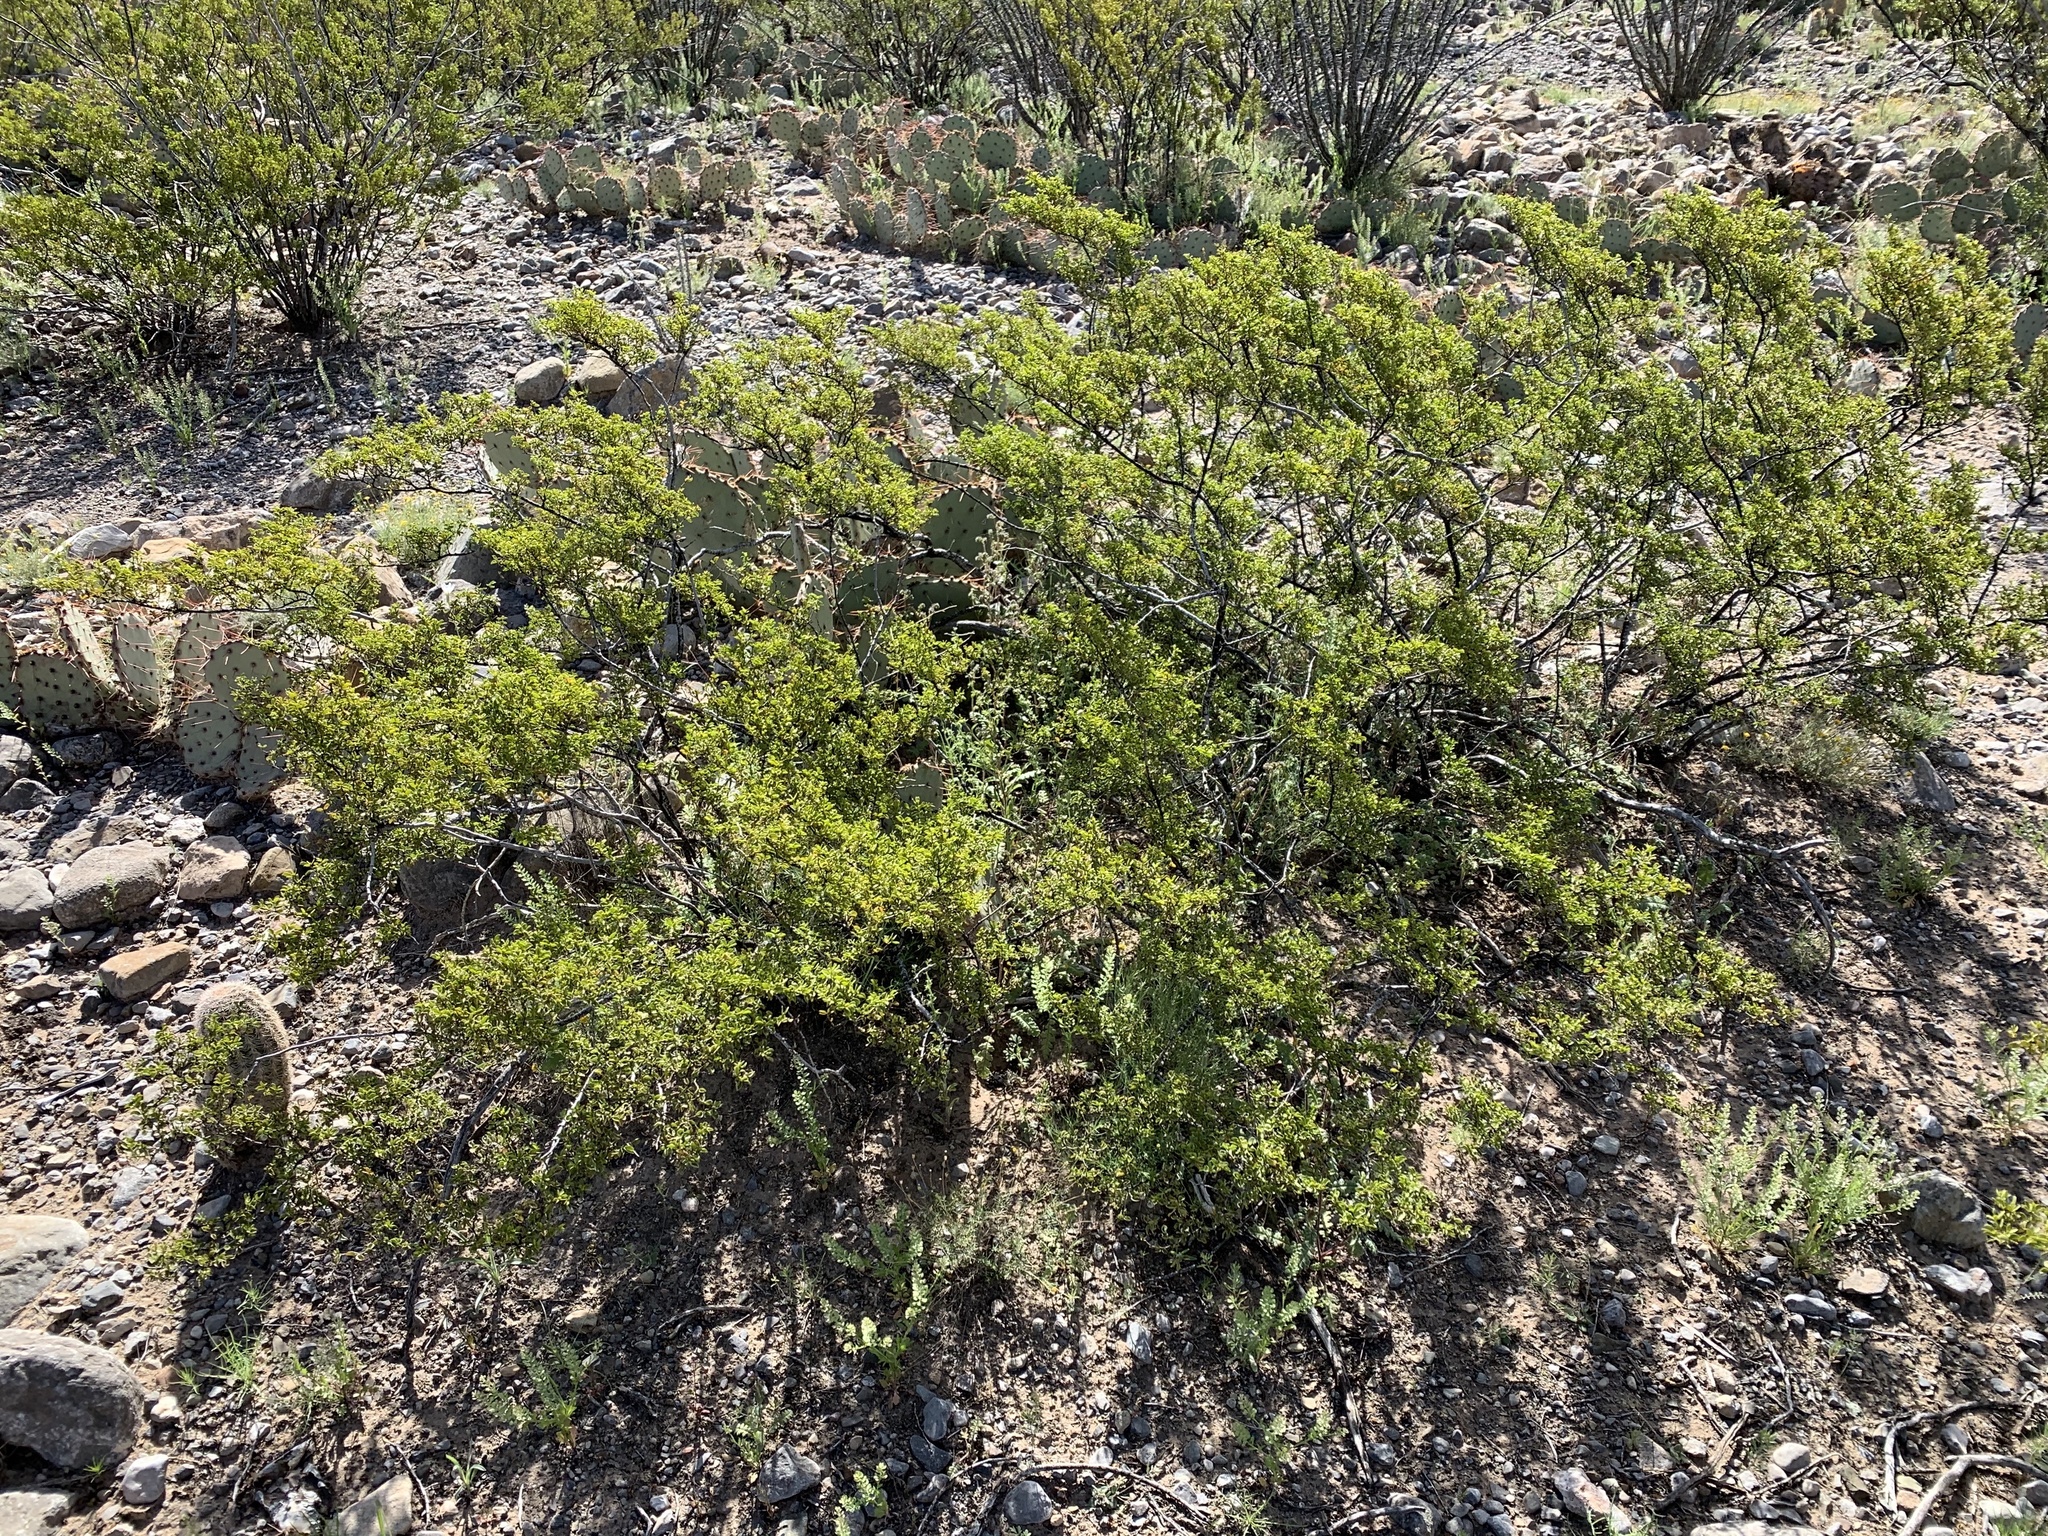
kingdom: Plantae
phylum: Tracheophyta
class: Magnoliopsida
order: Zygophyllales
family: Zygophyllaceae
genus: Larrea
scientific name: Larrea tridentata
